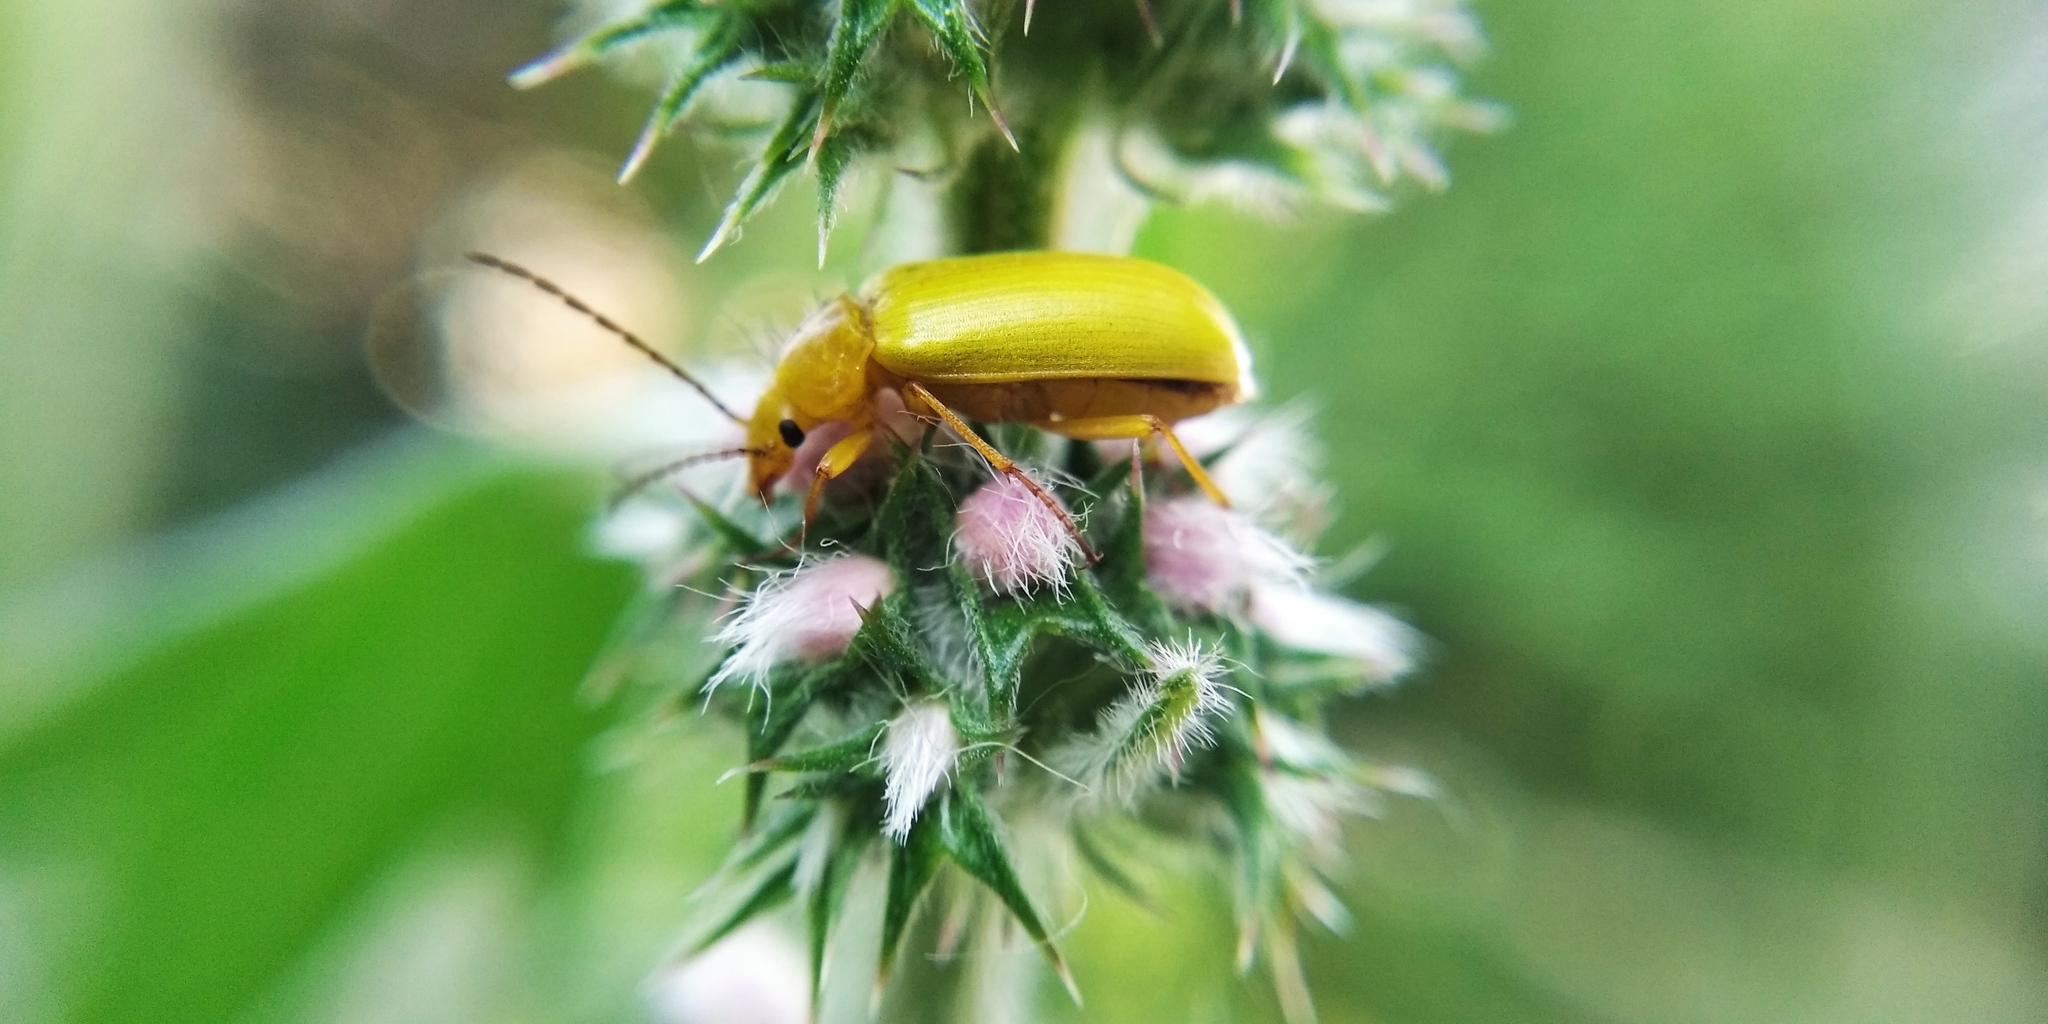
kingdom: Animalia
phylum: Arthropoda
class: Insecta
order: Coleoptera
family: Tenebrionidae
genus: Cteniopus
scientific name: Cteniopus sulphureus
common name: Sulphur beetle
